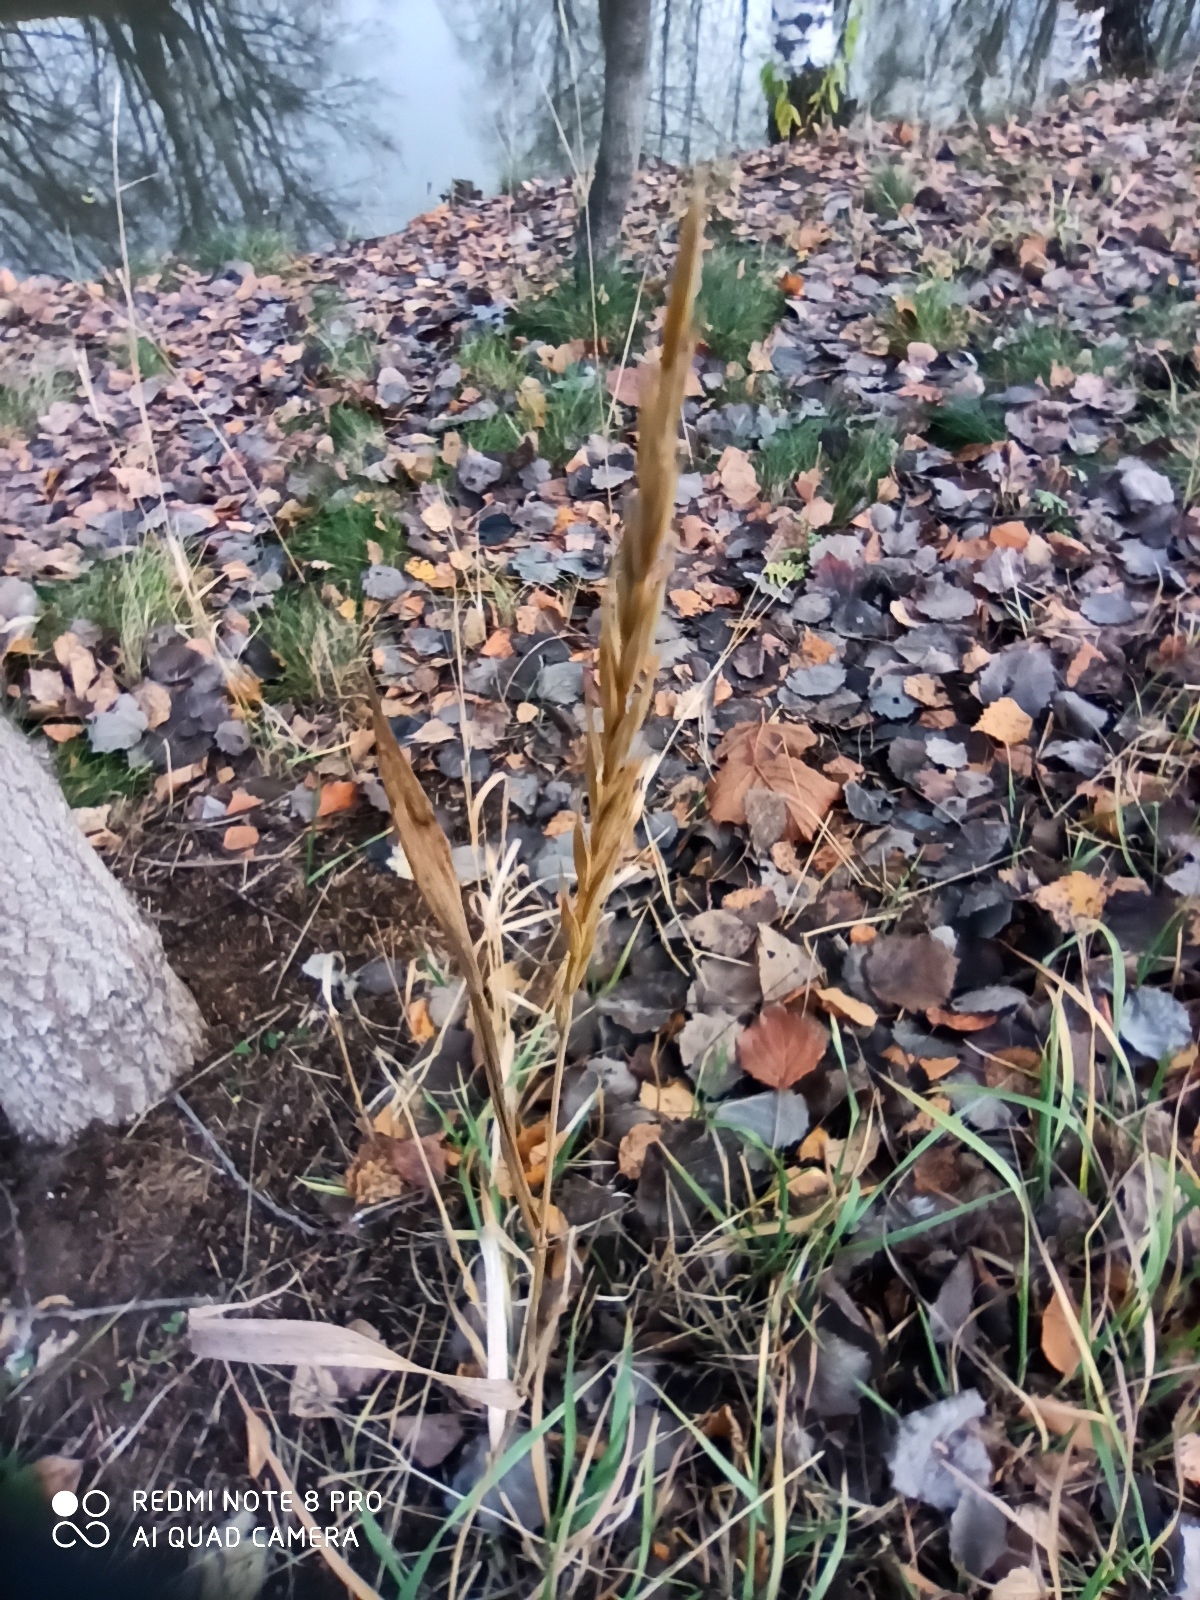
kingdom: Plantae
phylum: Tracheophyta
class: Liliopsida
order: Poales
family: Poaceae
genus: Elymus
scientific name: Elymus repens
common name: Quackgrass
